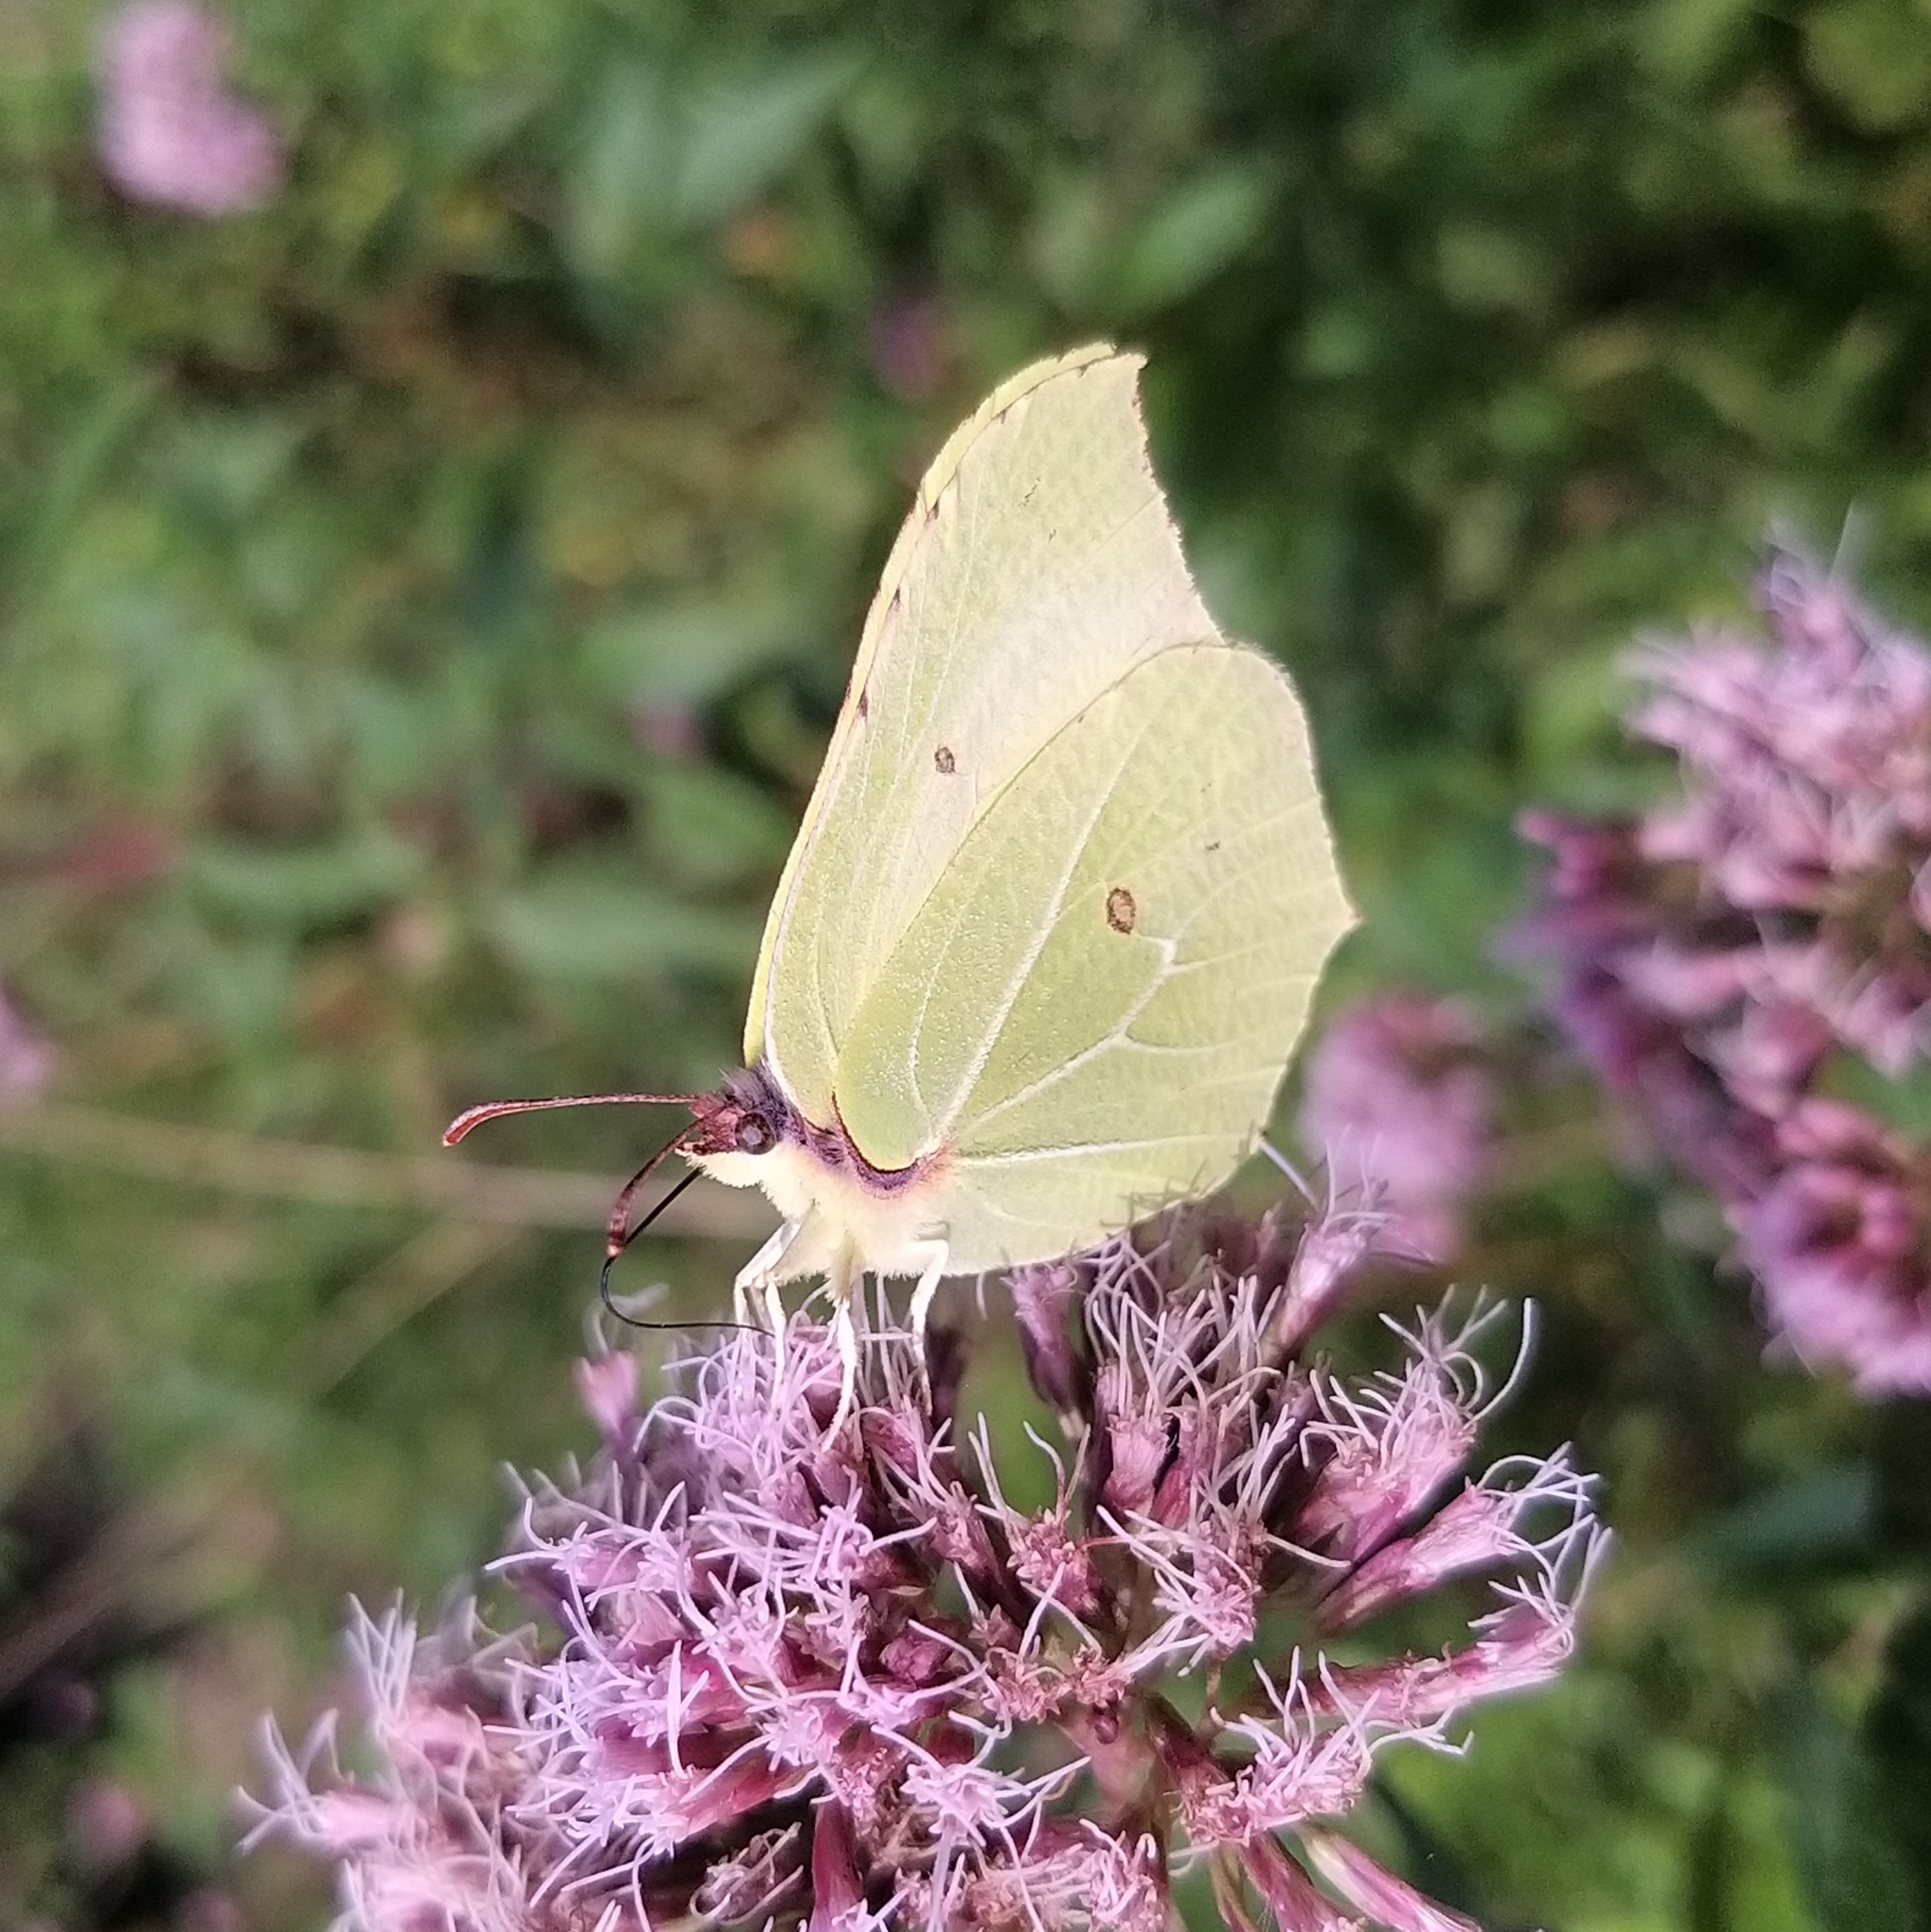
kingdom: Animalia
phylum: Arthropoda
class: Insecta
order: Lepidoptera
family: Pieridae
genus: Gonepteryx
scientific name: Gonepteryx rhamni
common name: Brimstone
